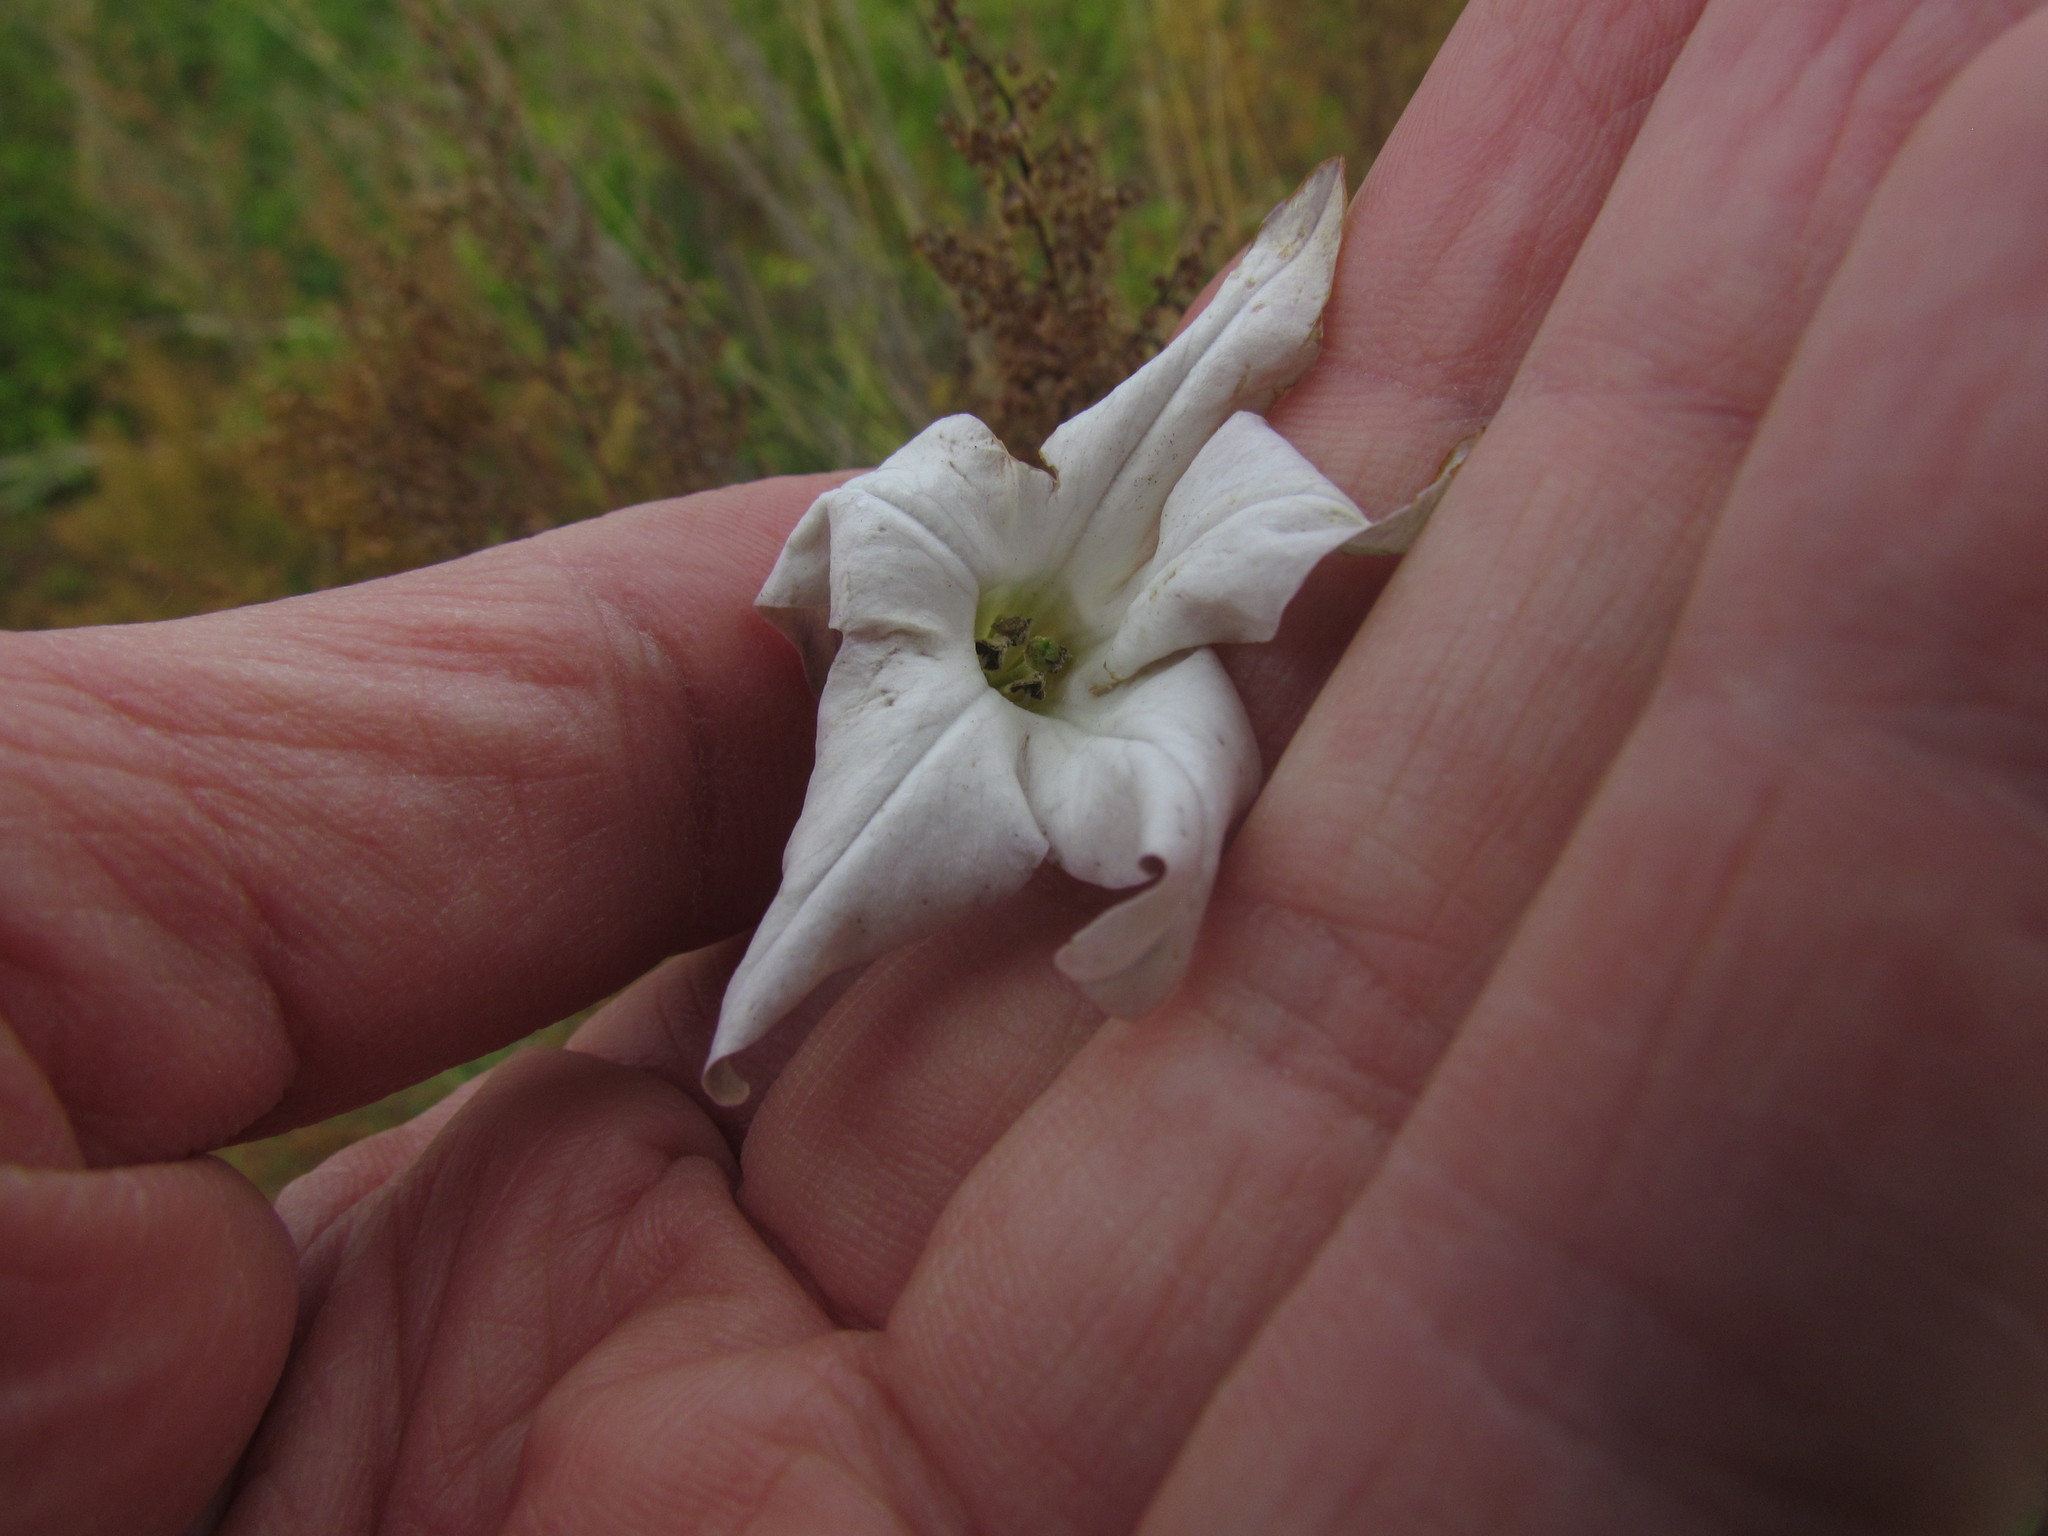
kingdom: Plantae
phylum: Tracheophyta
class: Magnoliopsida
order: Solanales
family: Solanaceae
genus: Nicotiana
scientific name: Nicotiana longiflora
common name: Long-flowered tobacco
